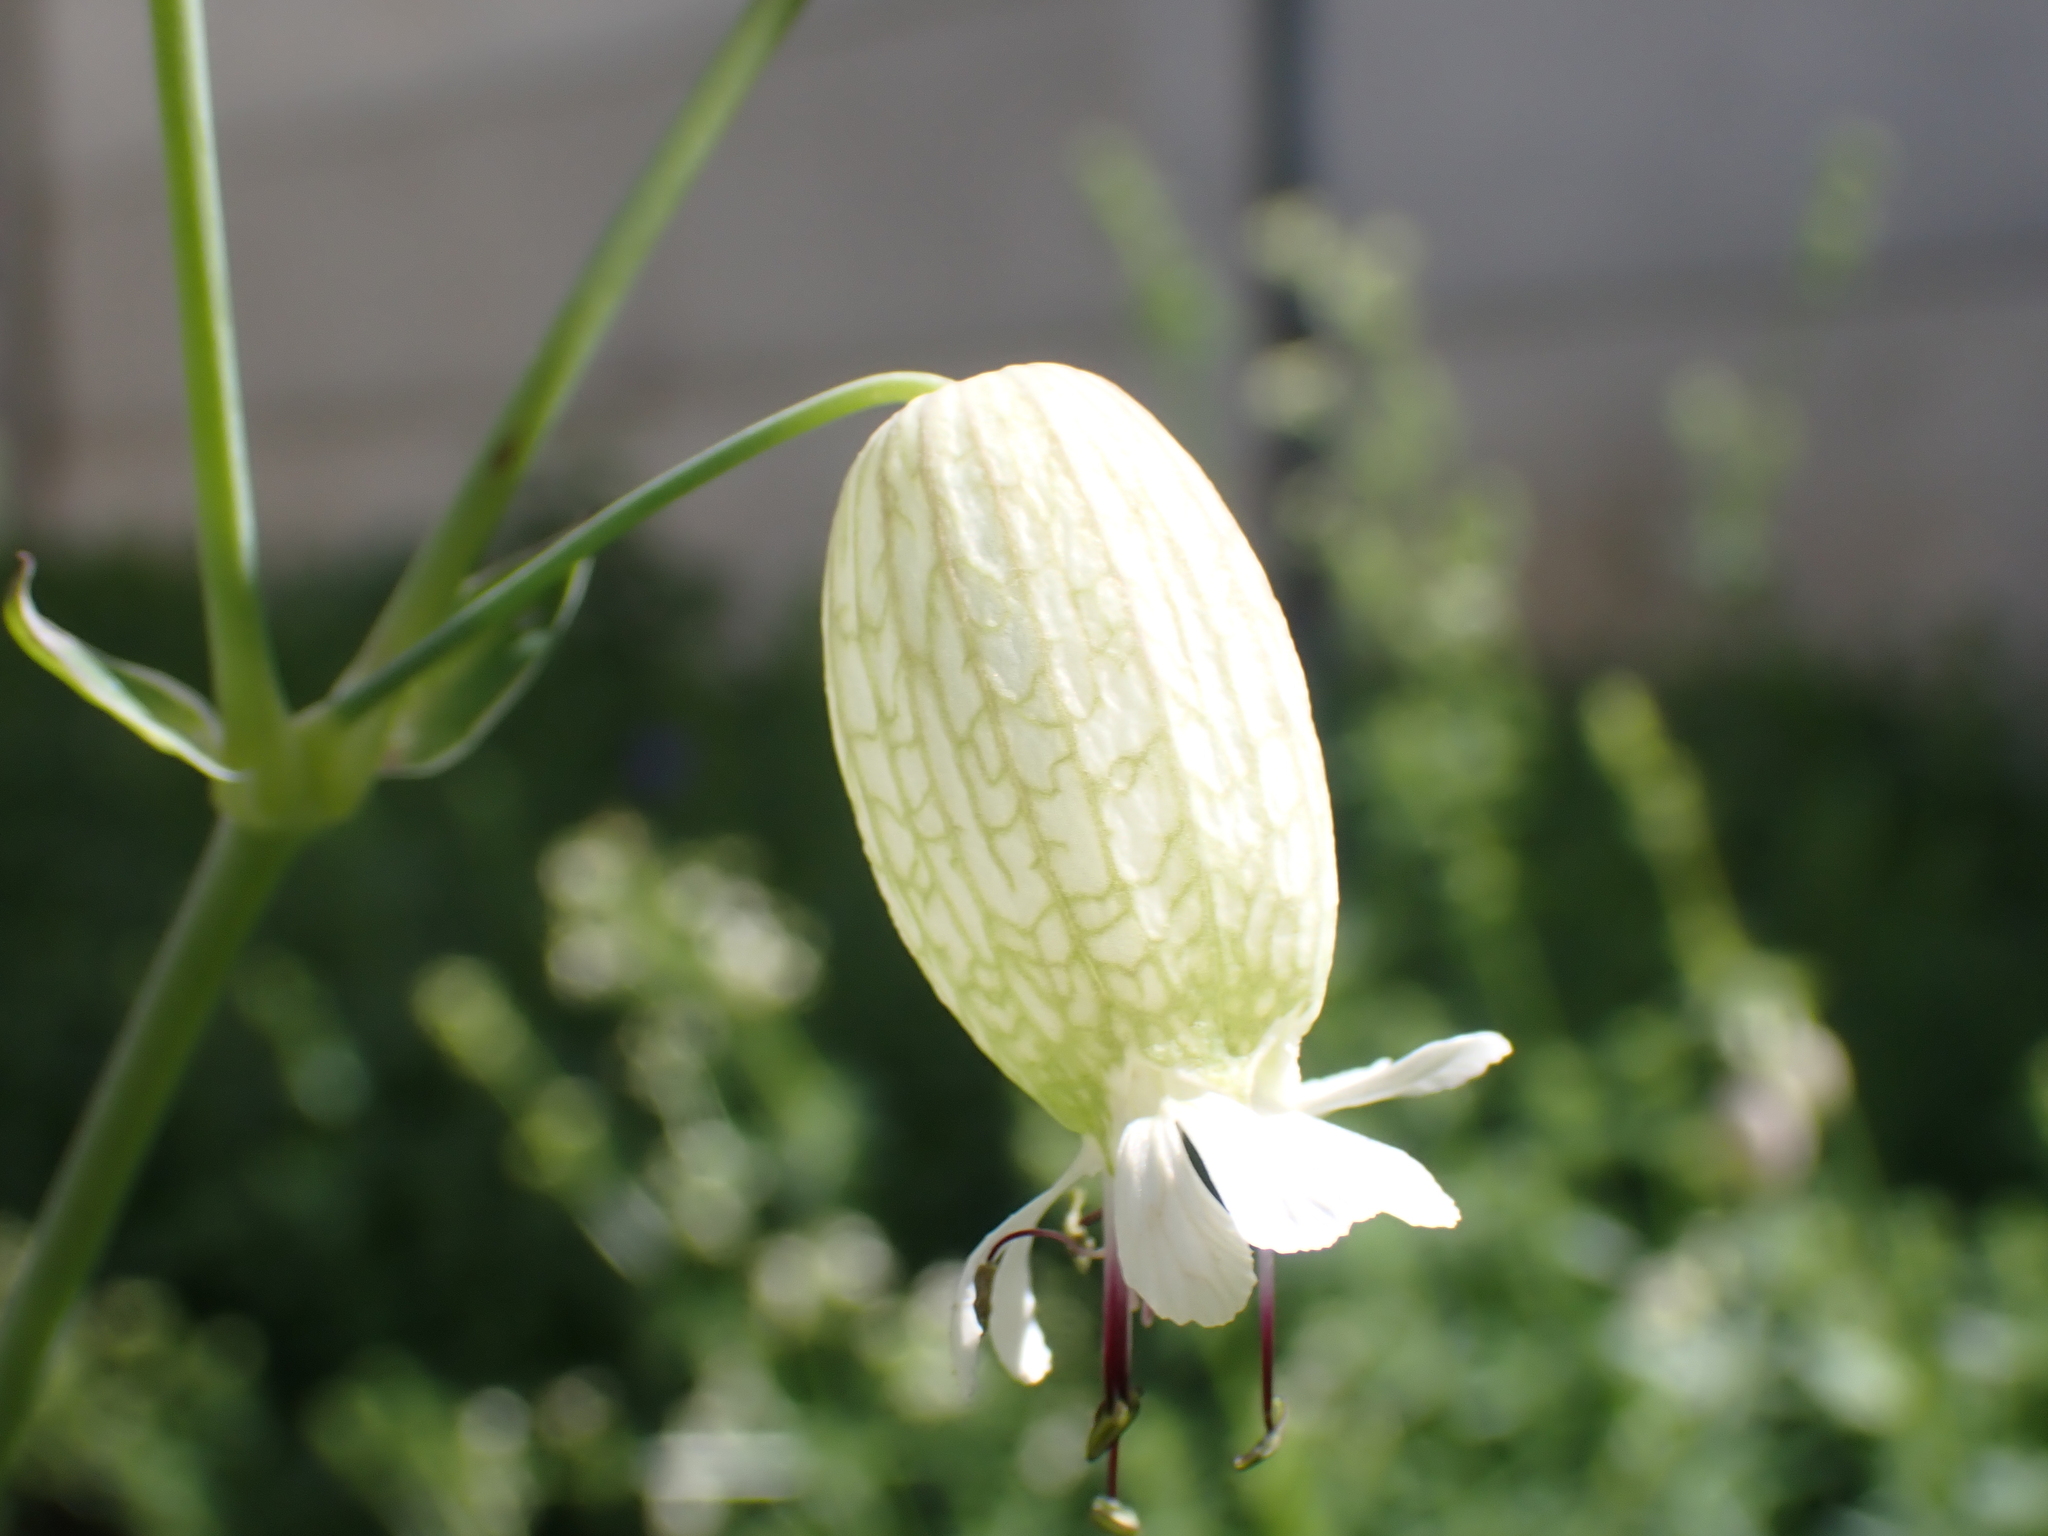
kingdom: Plantae
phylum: Tracheophyta
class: Magnoliopsida
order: Caryophyllales
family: Caryophyllaceae
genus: Silene
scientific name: Silene vulgaris
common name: Bladder campion
